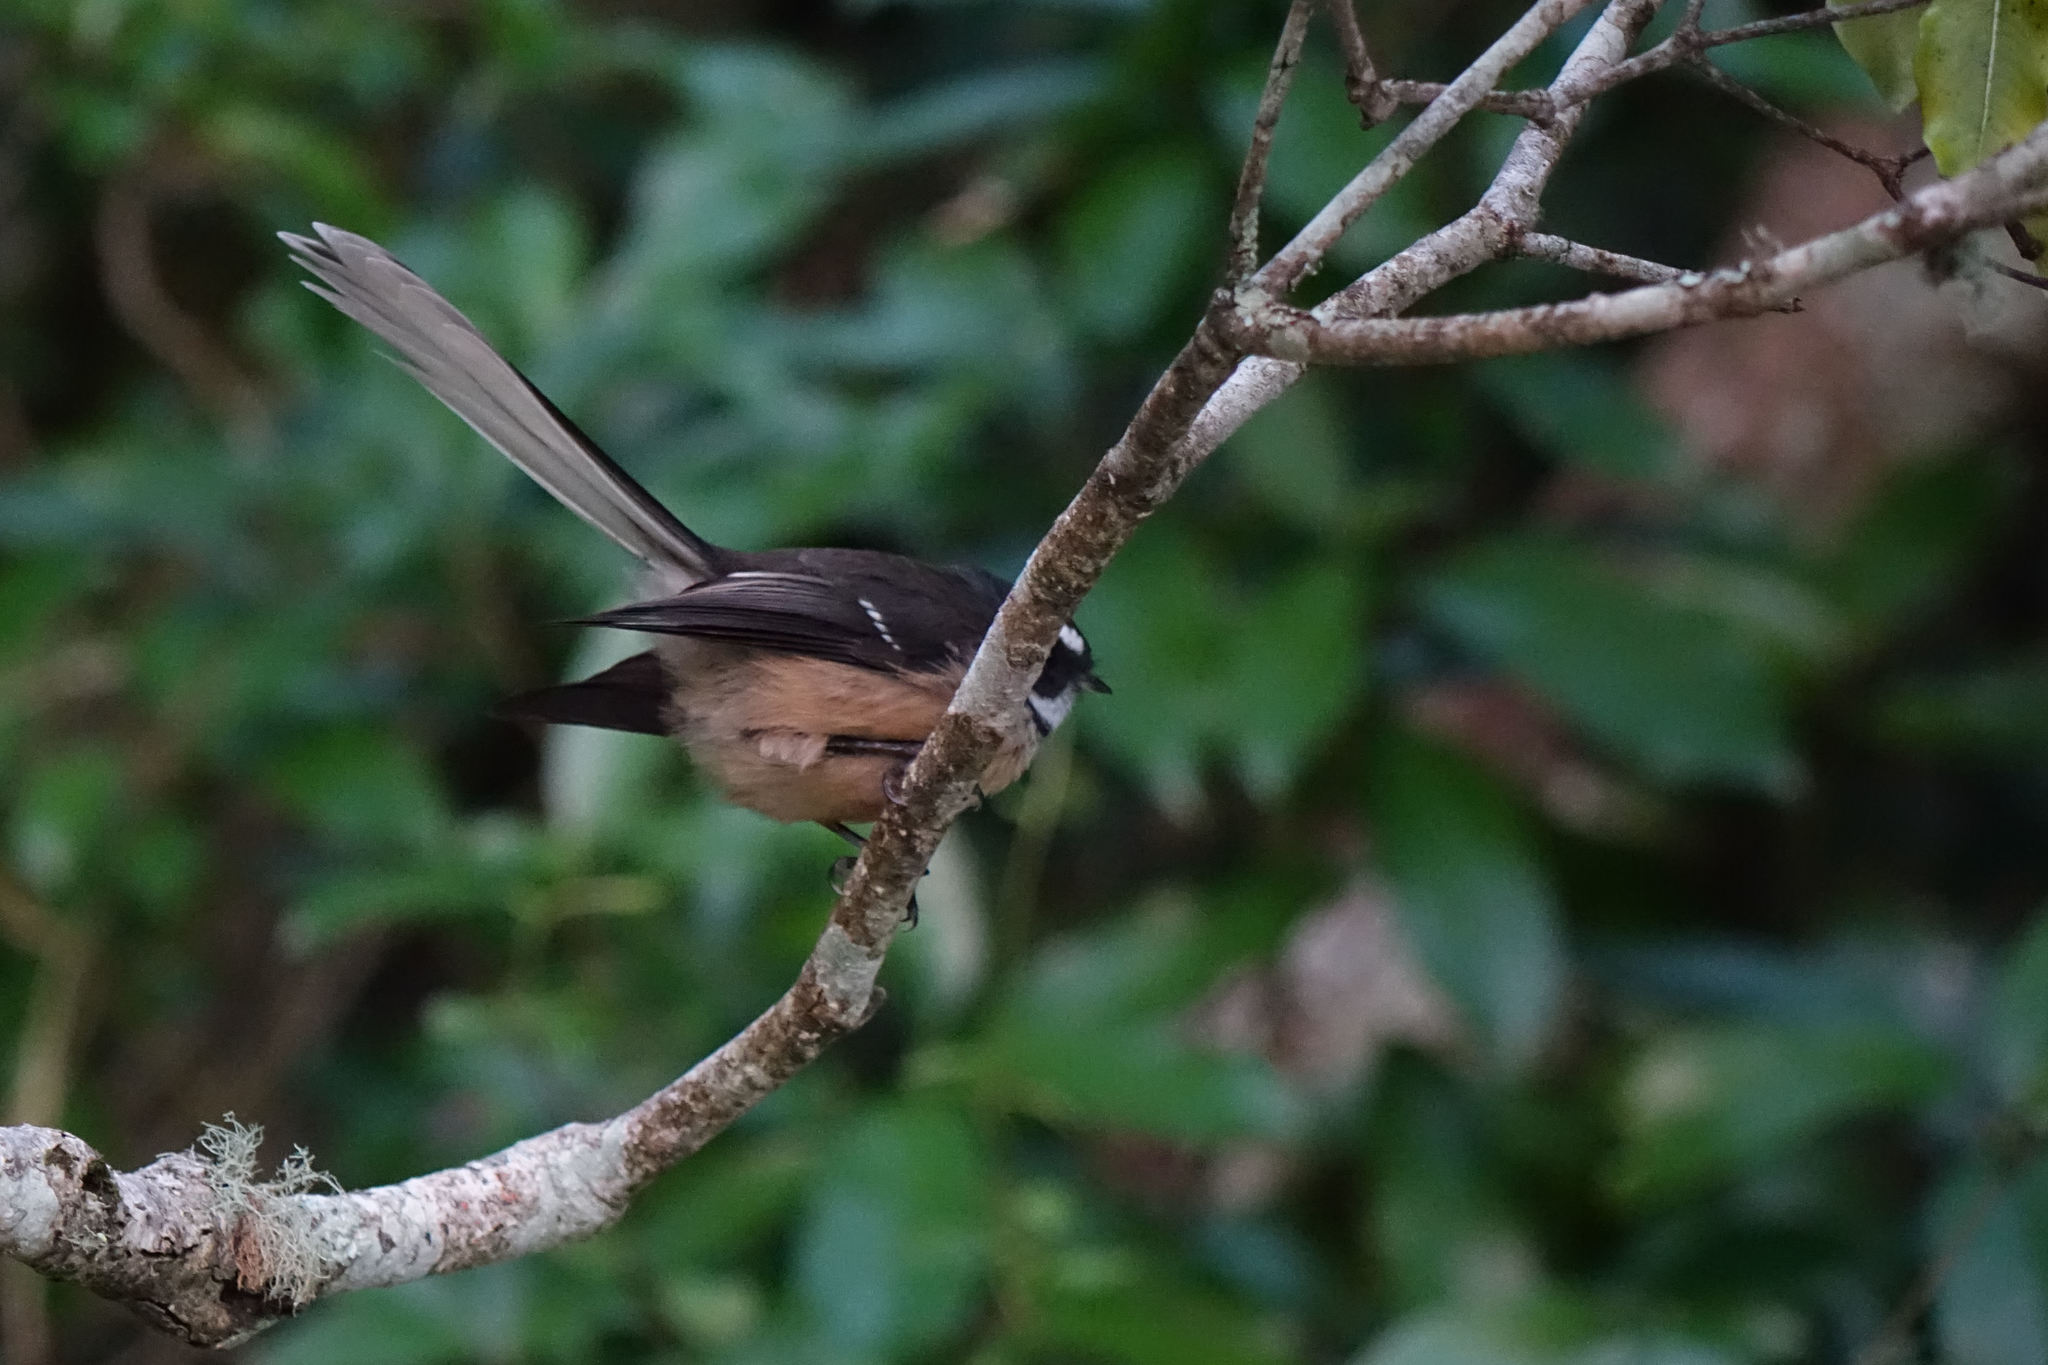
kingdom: Animalia
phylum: Chordata
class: Aves
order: Passeriformes
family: Rhipiduridae
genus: Rhipidura
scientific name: Rhipidura fuliginosa
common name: New zealand fantail
